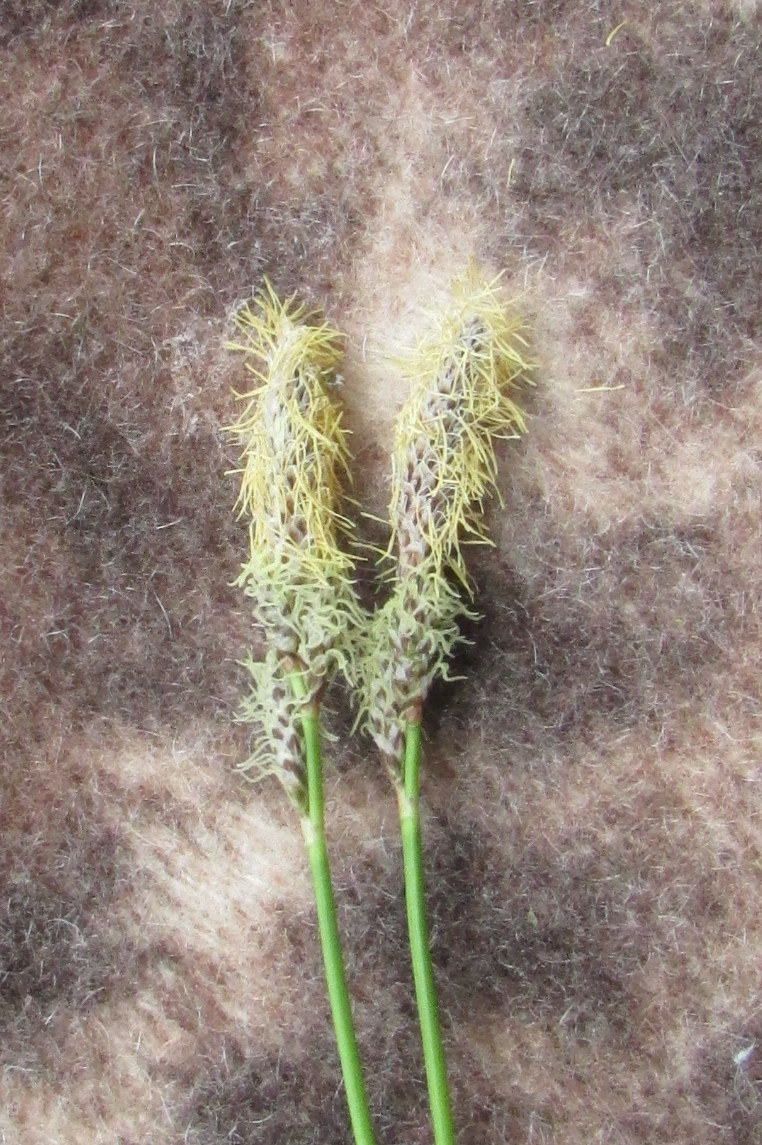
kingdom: Plantae
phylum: Tracheophyta
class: Liliopsida
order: Poales
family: Cyperaceae
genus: Carex
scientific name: Carex ericetorum
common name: Rare spring-sedge
